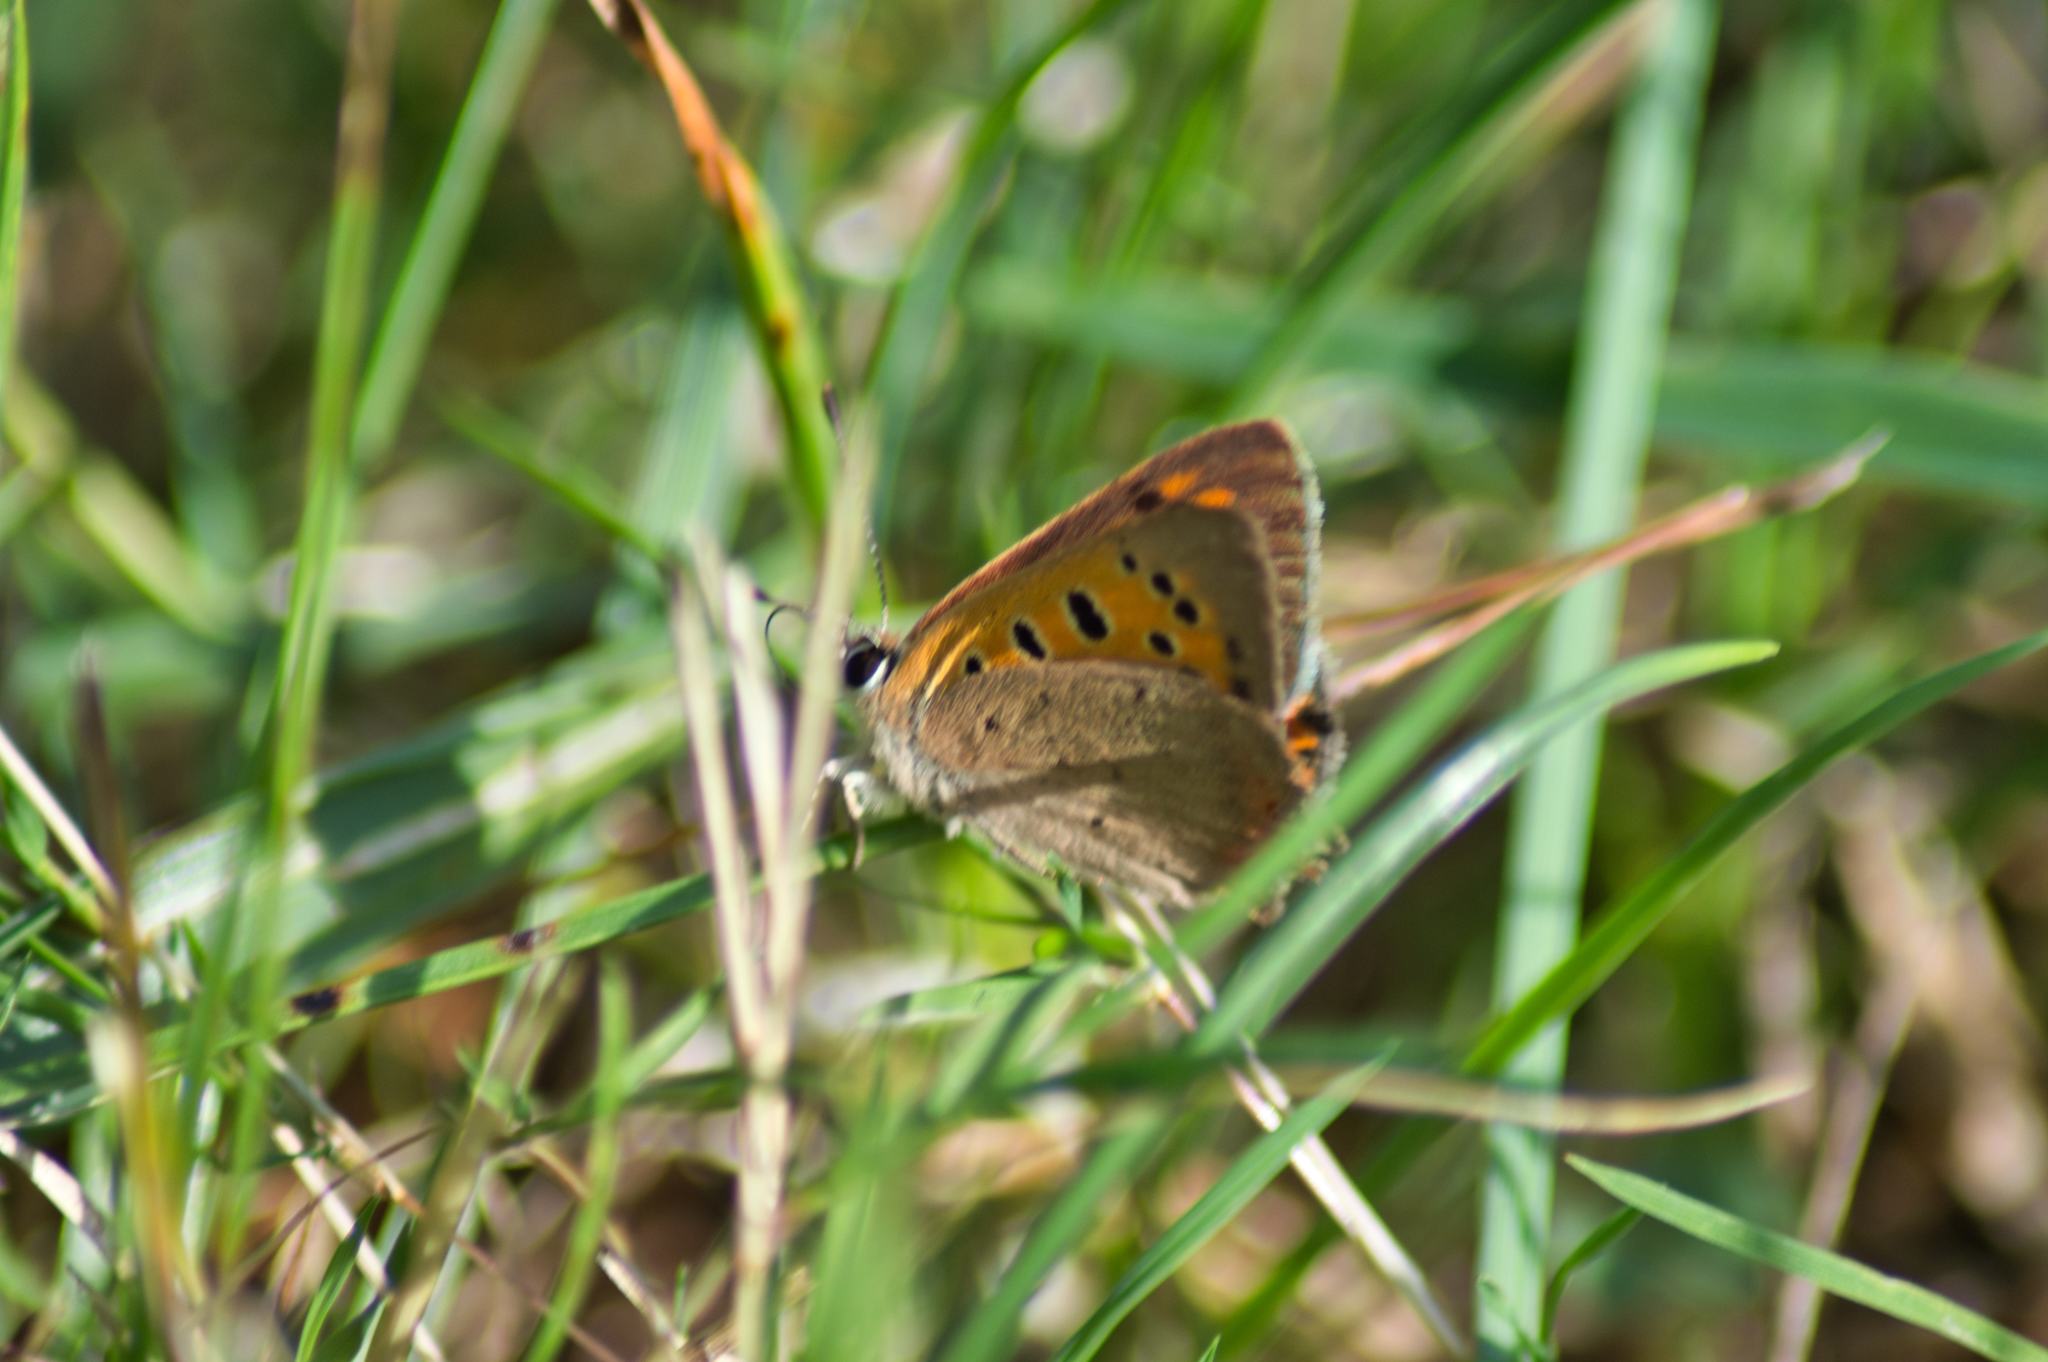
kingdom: Animalia
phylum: Arthropoda
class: Insecta
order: Lepidoptera
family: Lycaenidae
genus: Lycaena
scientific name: Lycaena phlaeas
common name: Small copper
